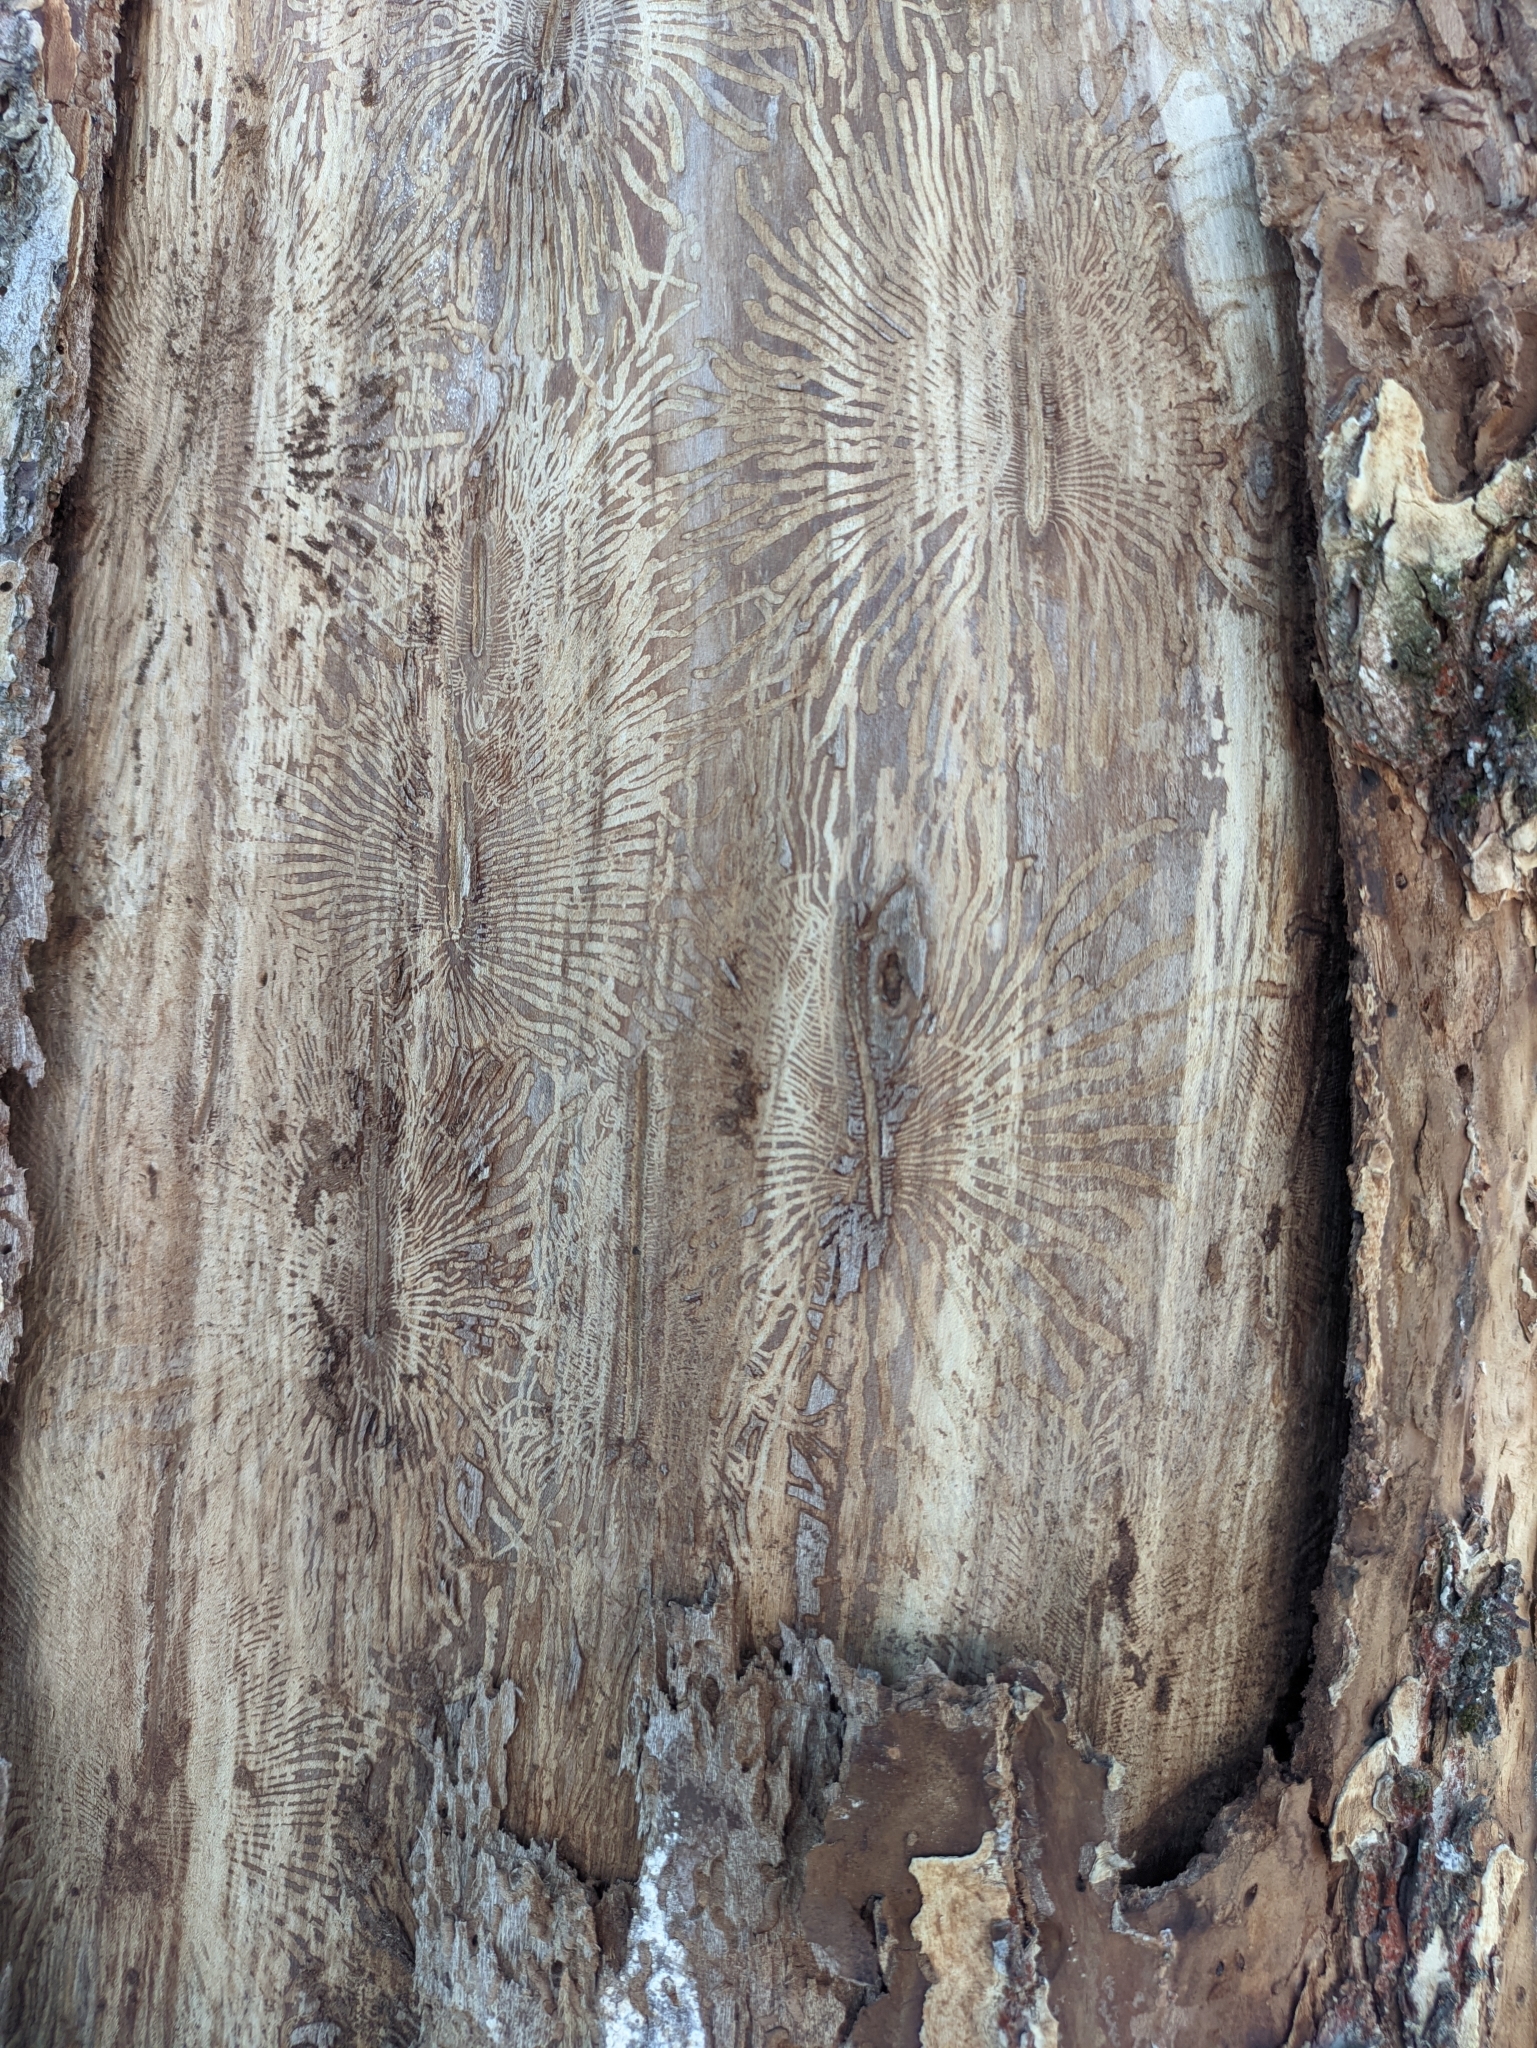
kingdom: Animalia
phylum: Arthropoda
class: Insecta
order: Coleoptera
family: Curculionidae
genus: Scolytus
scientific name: Scolytus multistriatus
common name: European elm bark beetle
